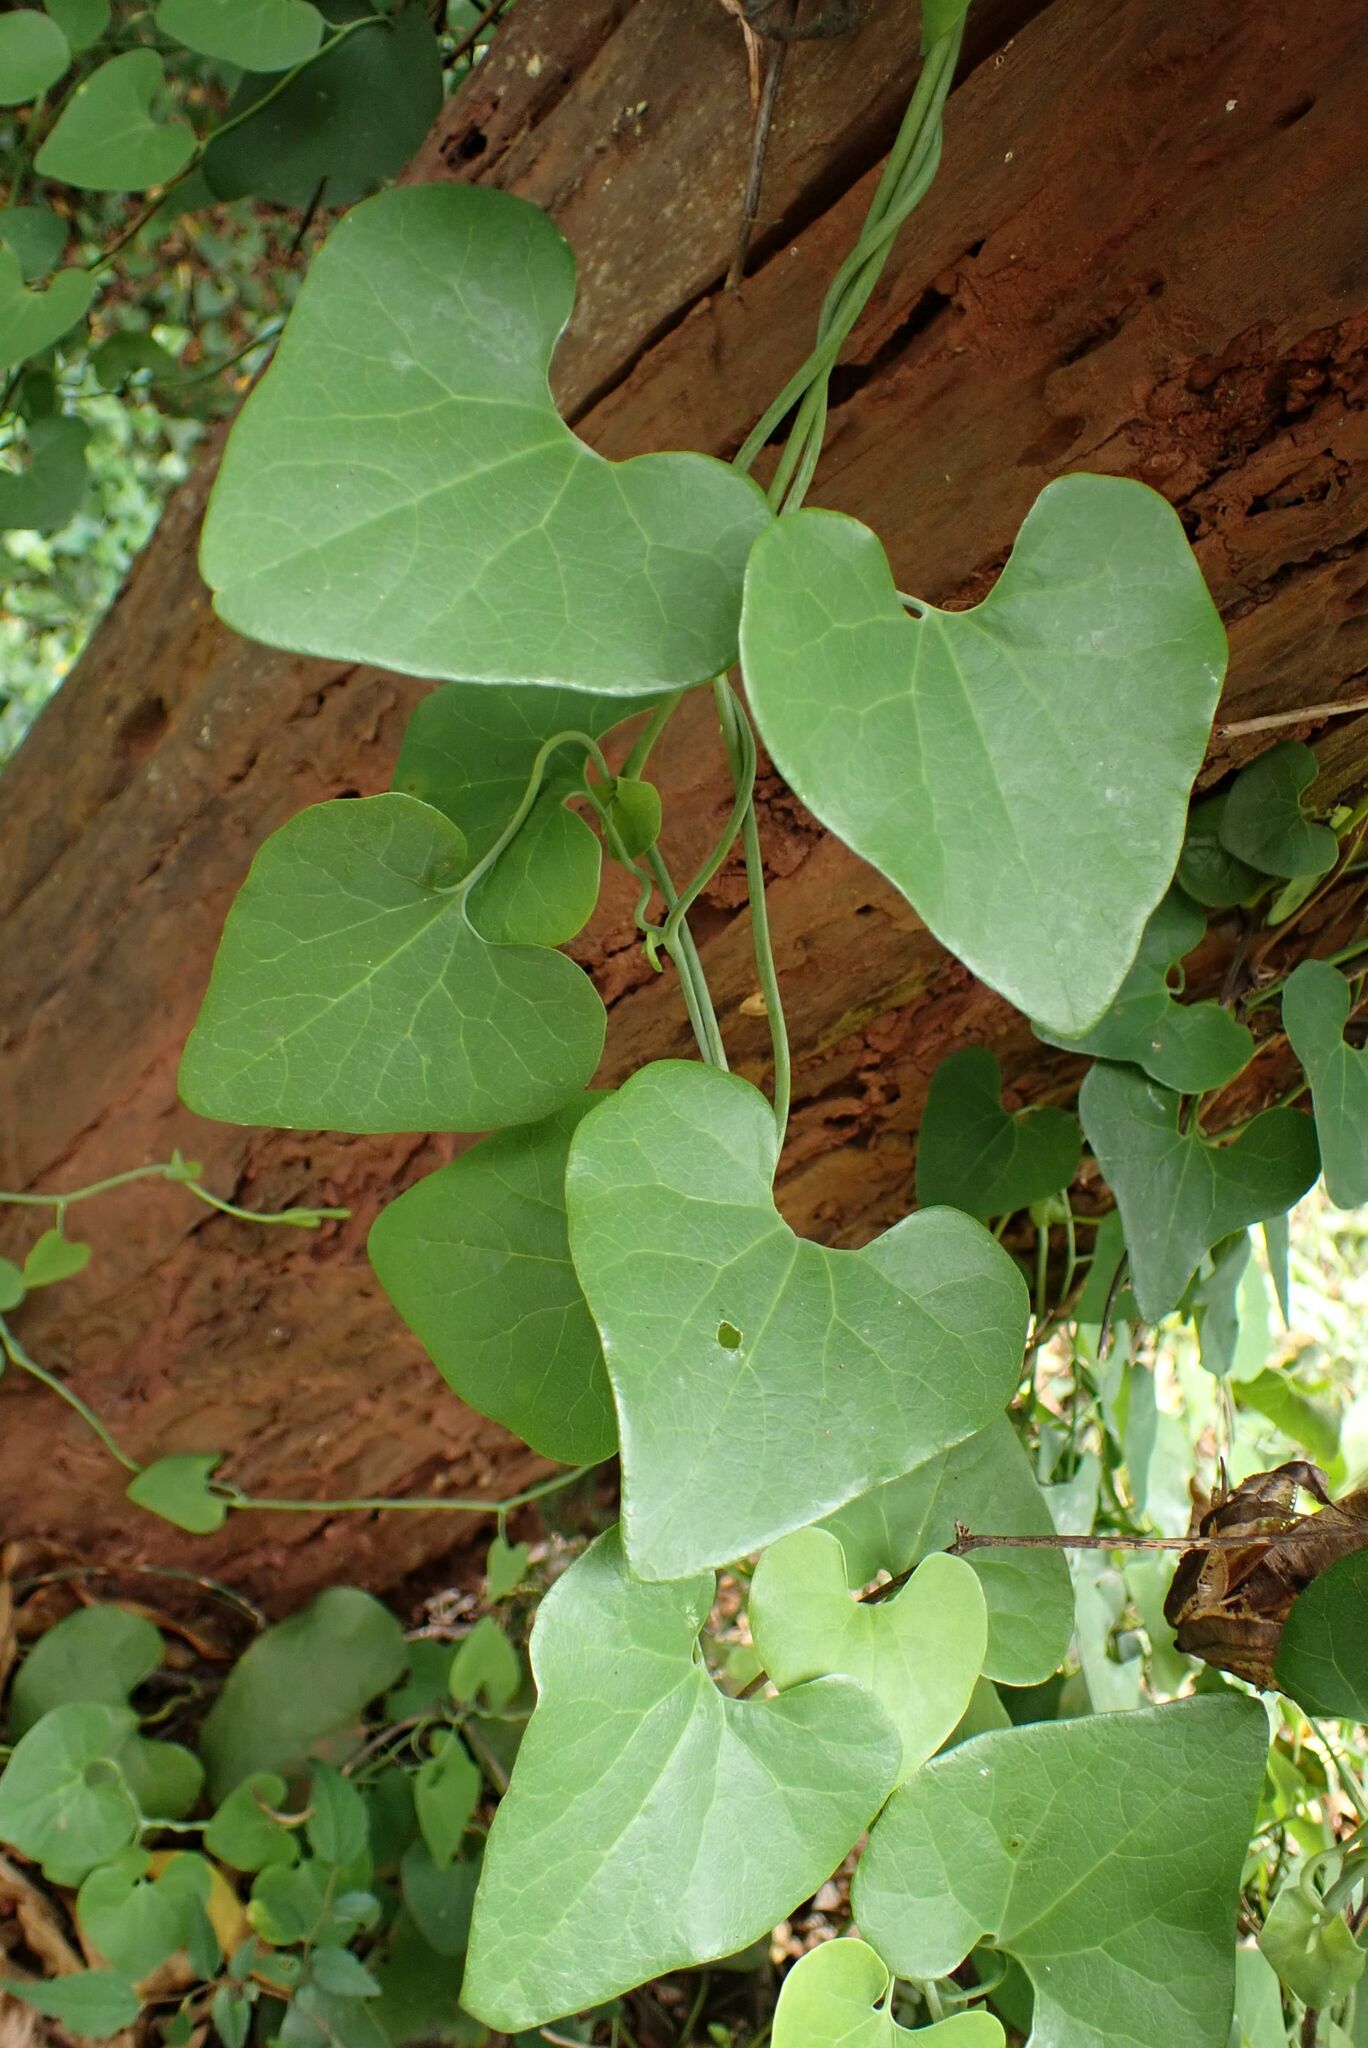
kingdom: Plantae
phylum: Tracheophyta
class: Magnoliopsida
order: Piperales
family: Aristolochiaceae
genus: Aristolochia
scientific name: Aristolochia littoralis
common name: Duck
